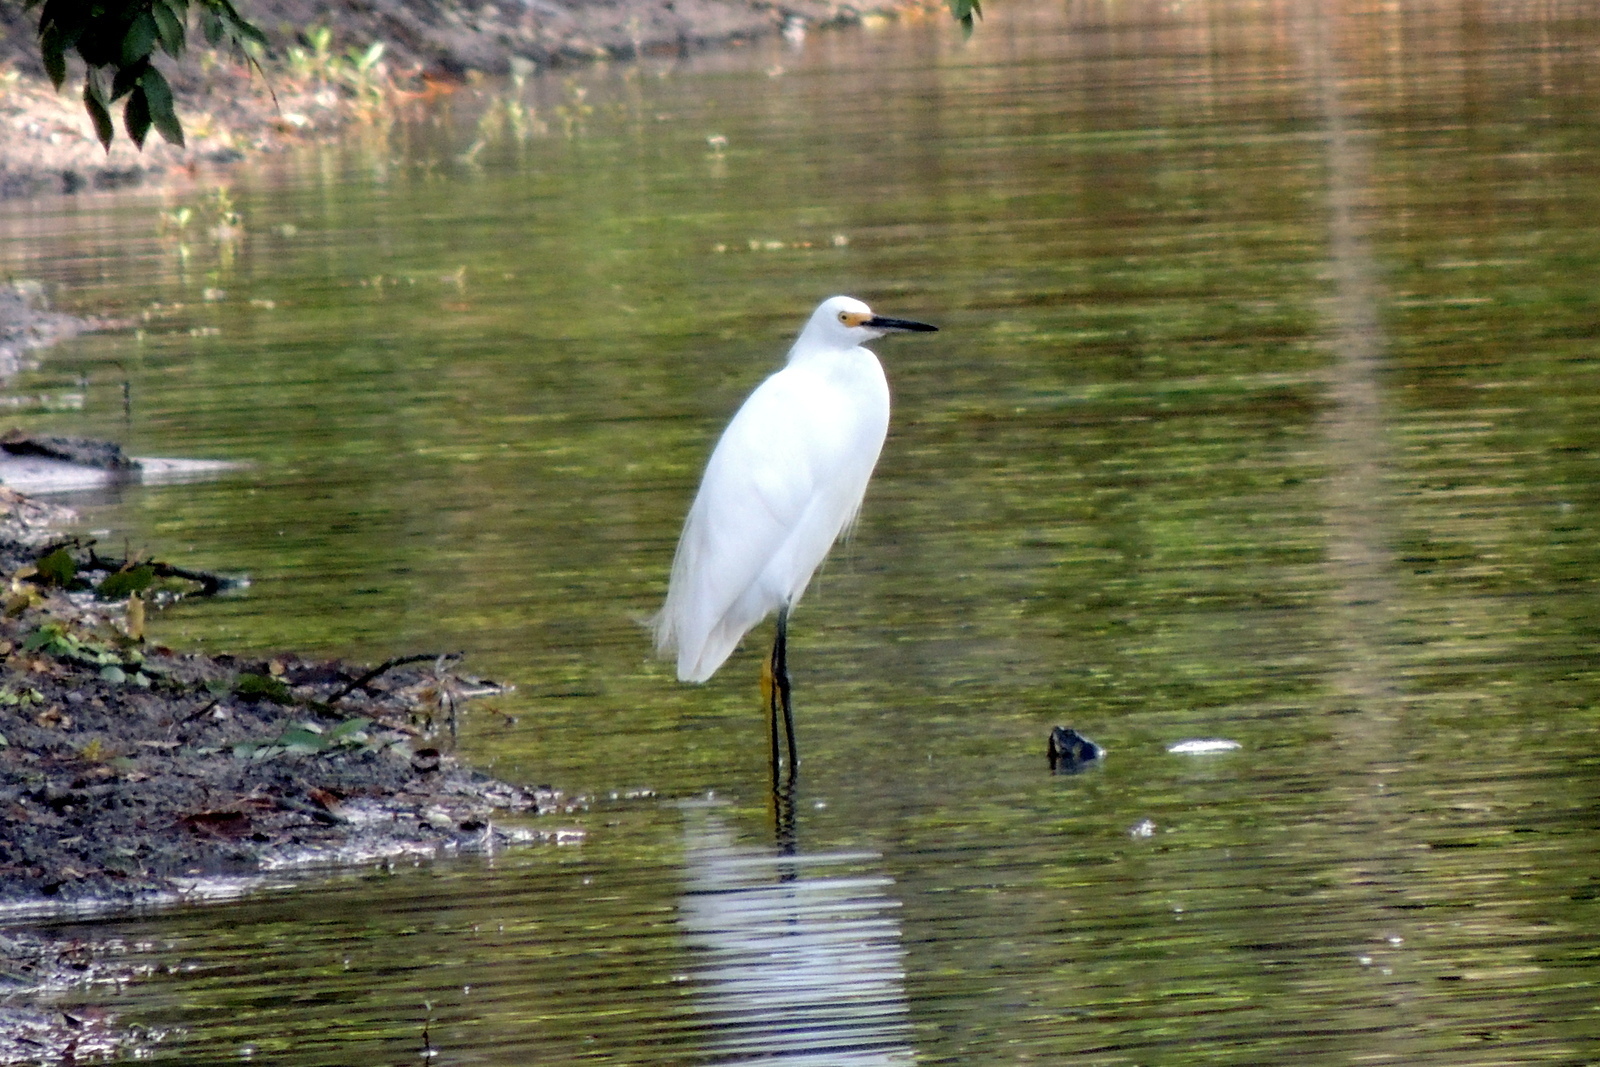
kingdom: Animalia
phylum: Chordata
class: Aves
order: Pelecaniformes
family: Ardeidae
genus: Egretta
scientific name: Egretta thula
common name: Snowy egret
